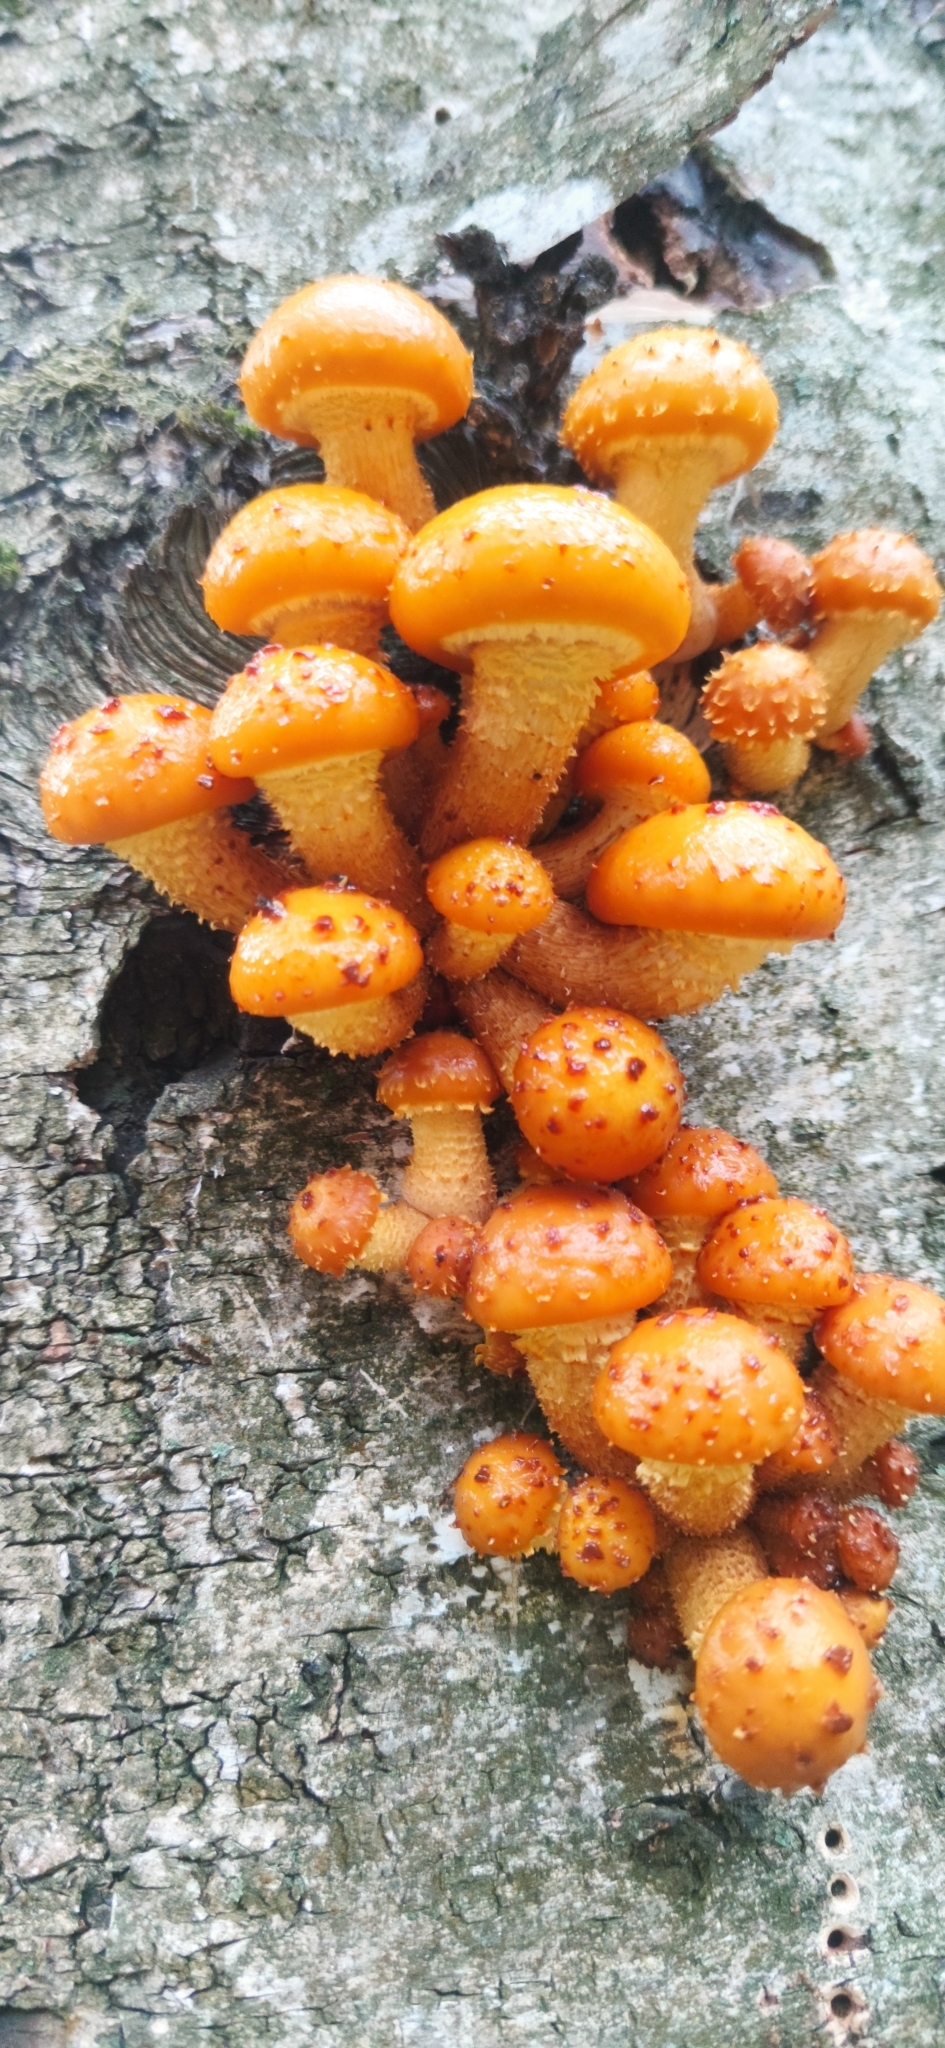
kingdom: Fungi
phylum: Basidiomycota
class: Agaricomycetes
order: Agaricales
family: Strophariaceae
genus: Pholiota
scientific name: Pholiota aurivella
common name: Golden scalycap
